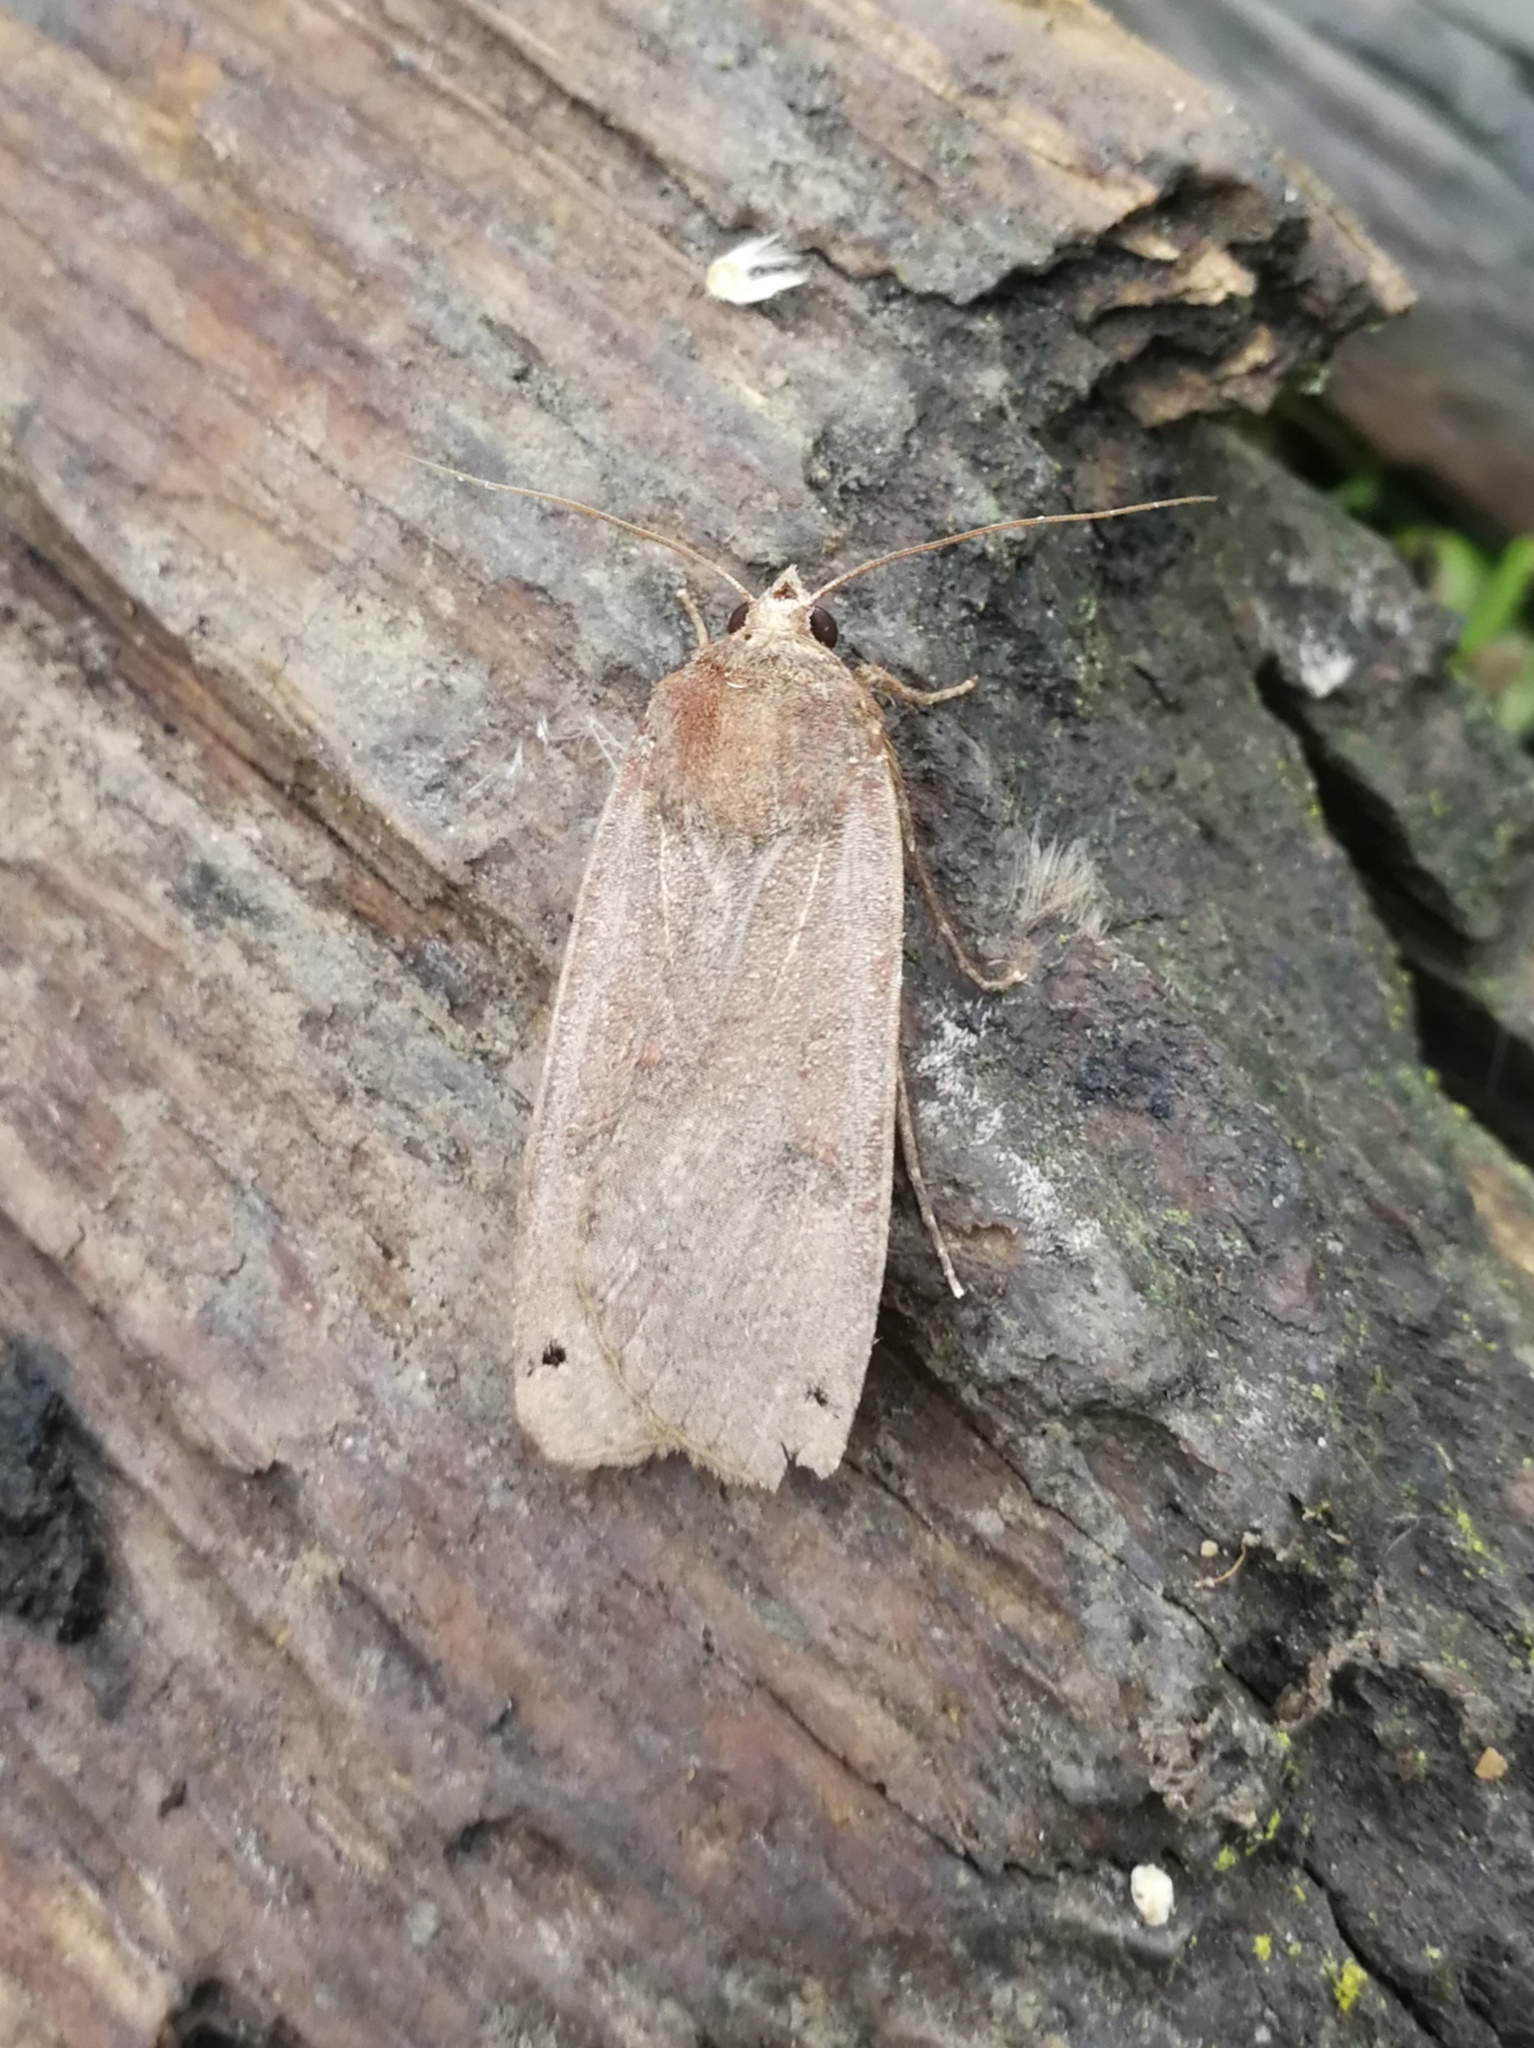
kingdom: Animalia
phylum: Arthropoda
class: Insecta
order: Lepidoptera
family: Noctuidae
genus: Noctua
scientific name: Noctua pronuba
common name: Large yellow underwing
